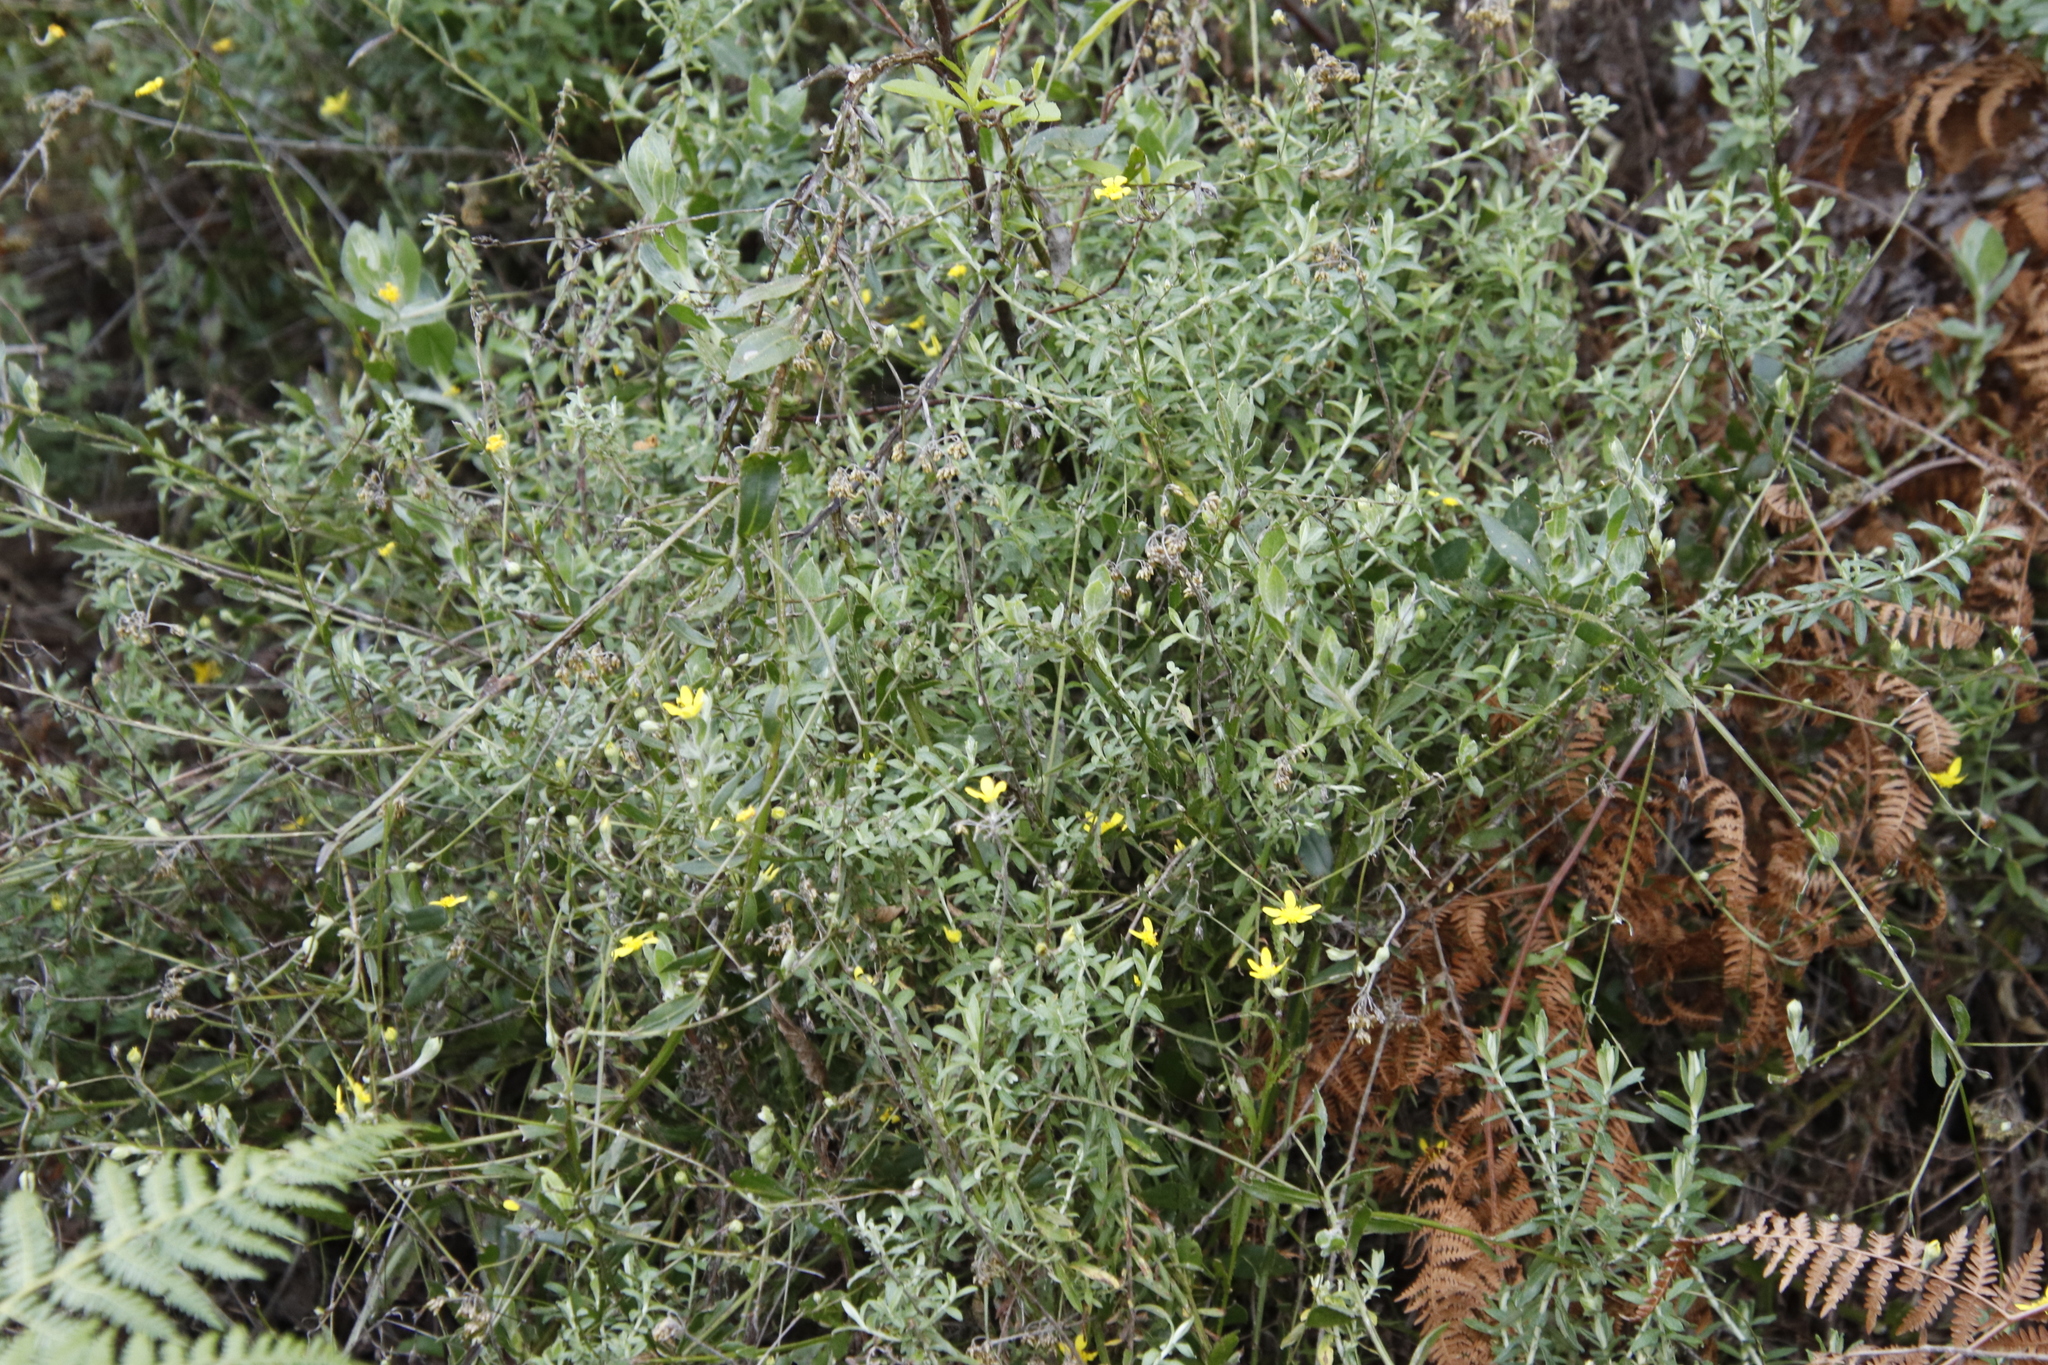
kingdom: Plantae
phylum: Tracheophyta
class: Magnoliopsida
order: Asterales
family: Asteraceae
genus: Osteospermum
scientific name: Osteospermum ciliatum
